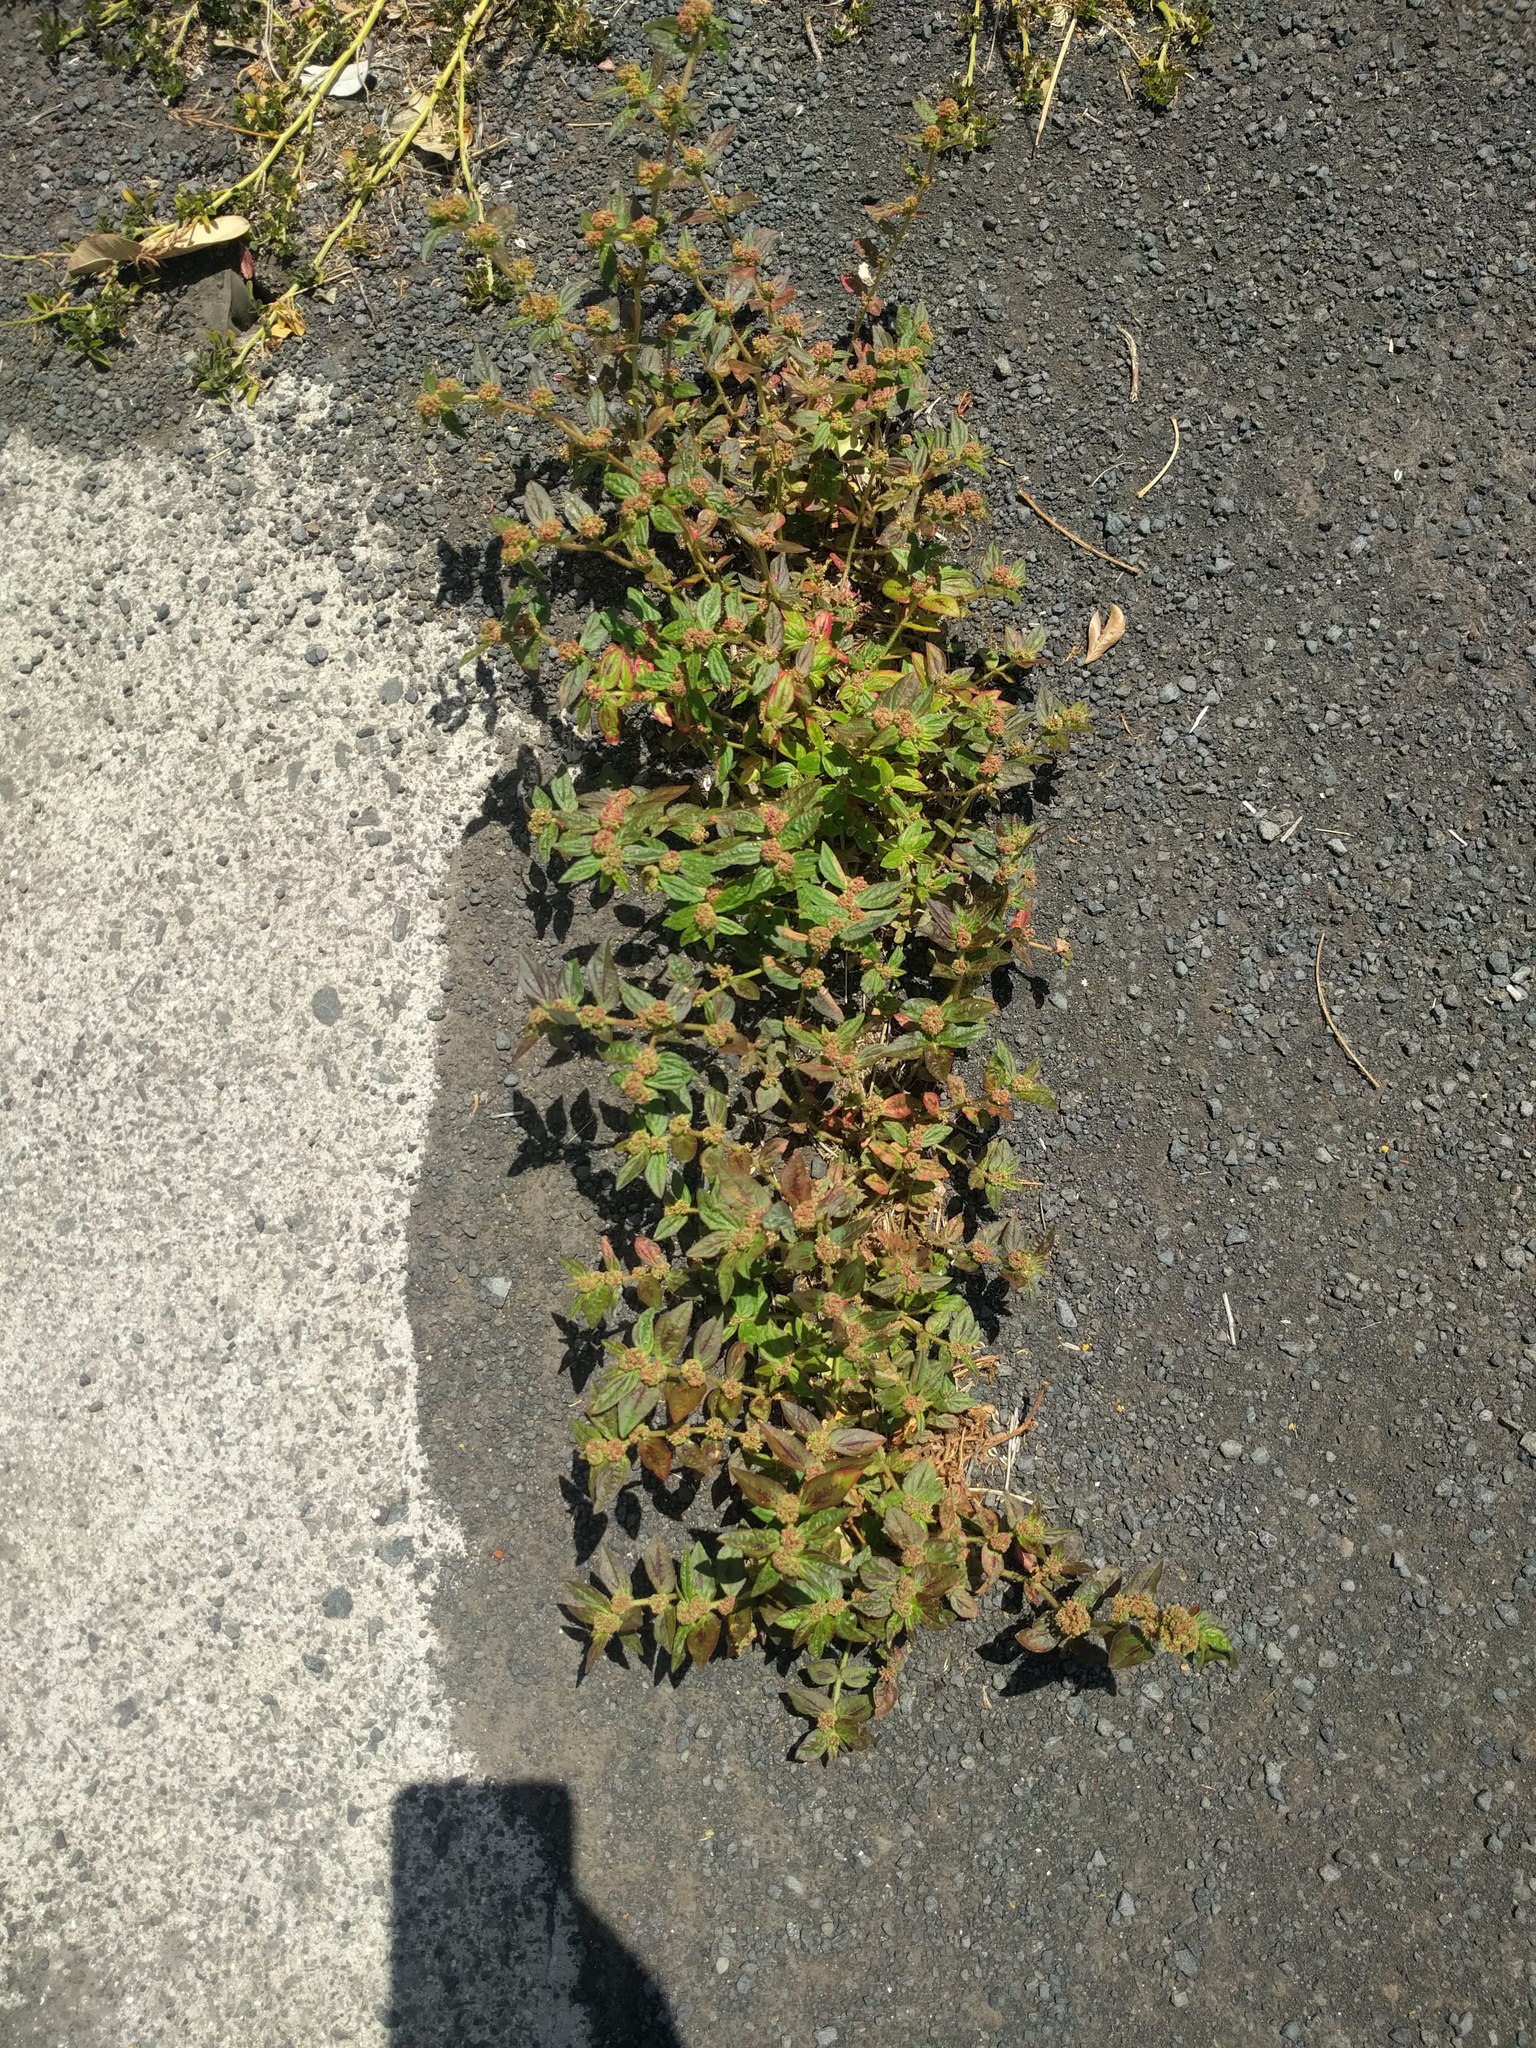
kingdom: Plantae
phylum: Tracheophyta
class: Magnoliopsida
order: Malpighiales
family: Euphorbiaceae
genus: Euphorbia
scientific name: Euphorbia hirta
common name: Pillpod sandmat
